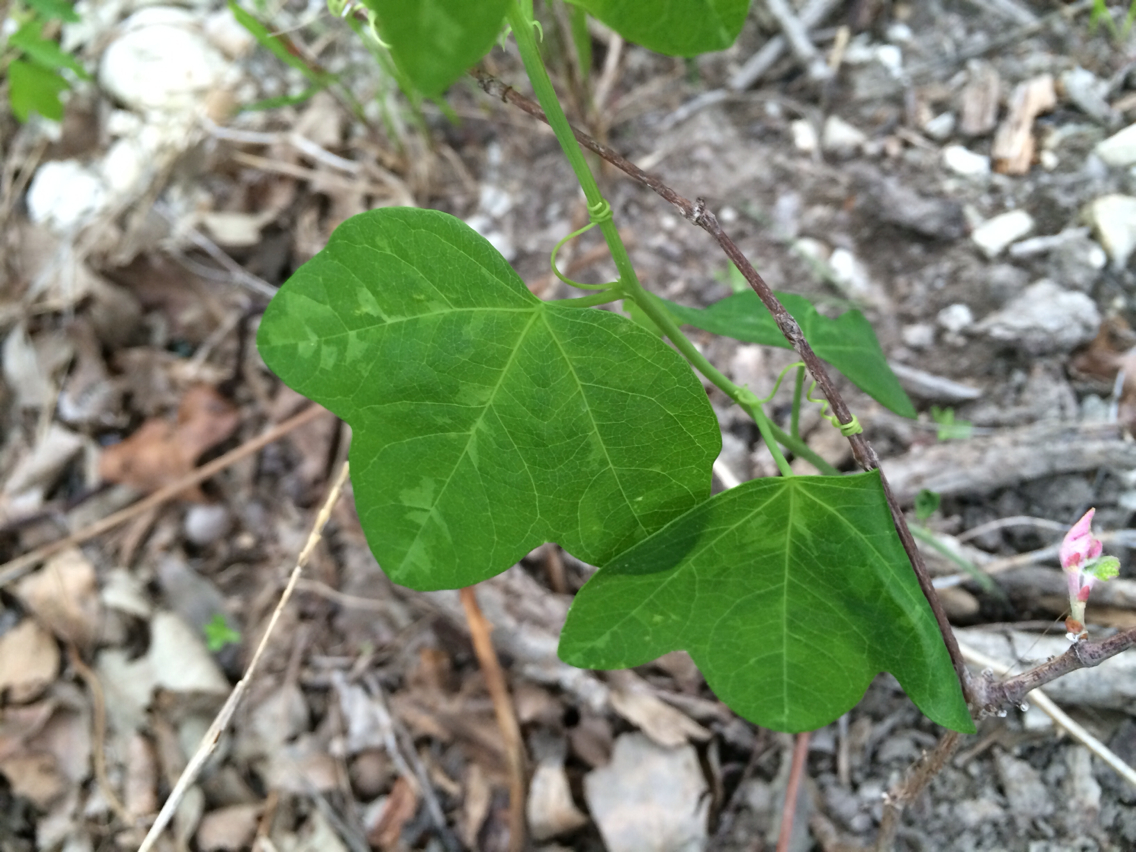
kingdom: Plantae
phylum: Tracheophyta
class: Magnoliopsida
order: Malpighiales
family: Passifloraceae
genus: Passiflora
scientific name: Passiflora lutea
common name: Yellow passionflower
